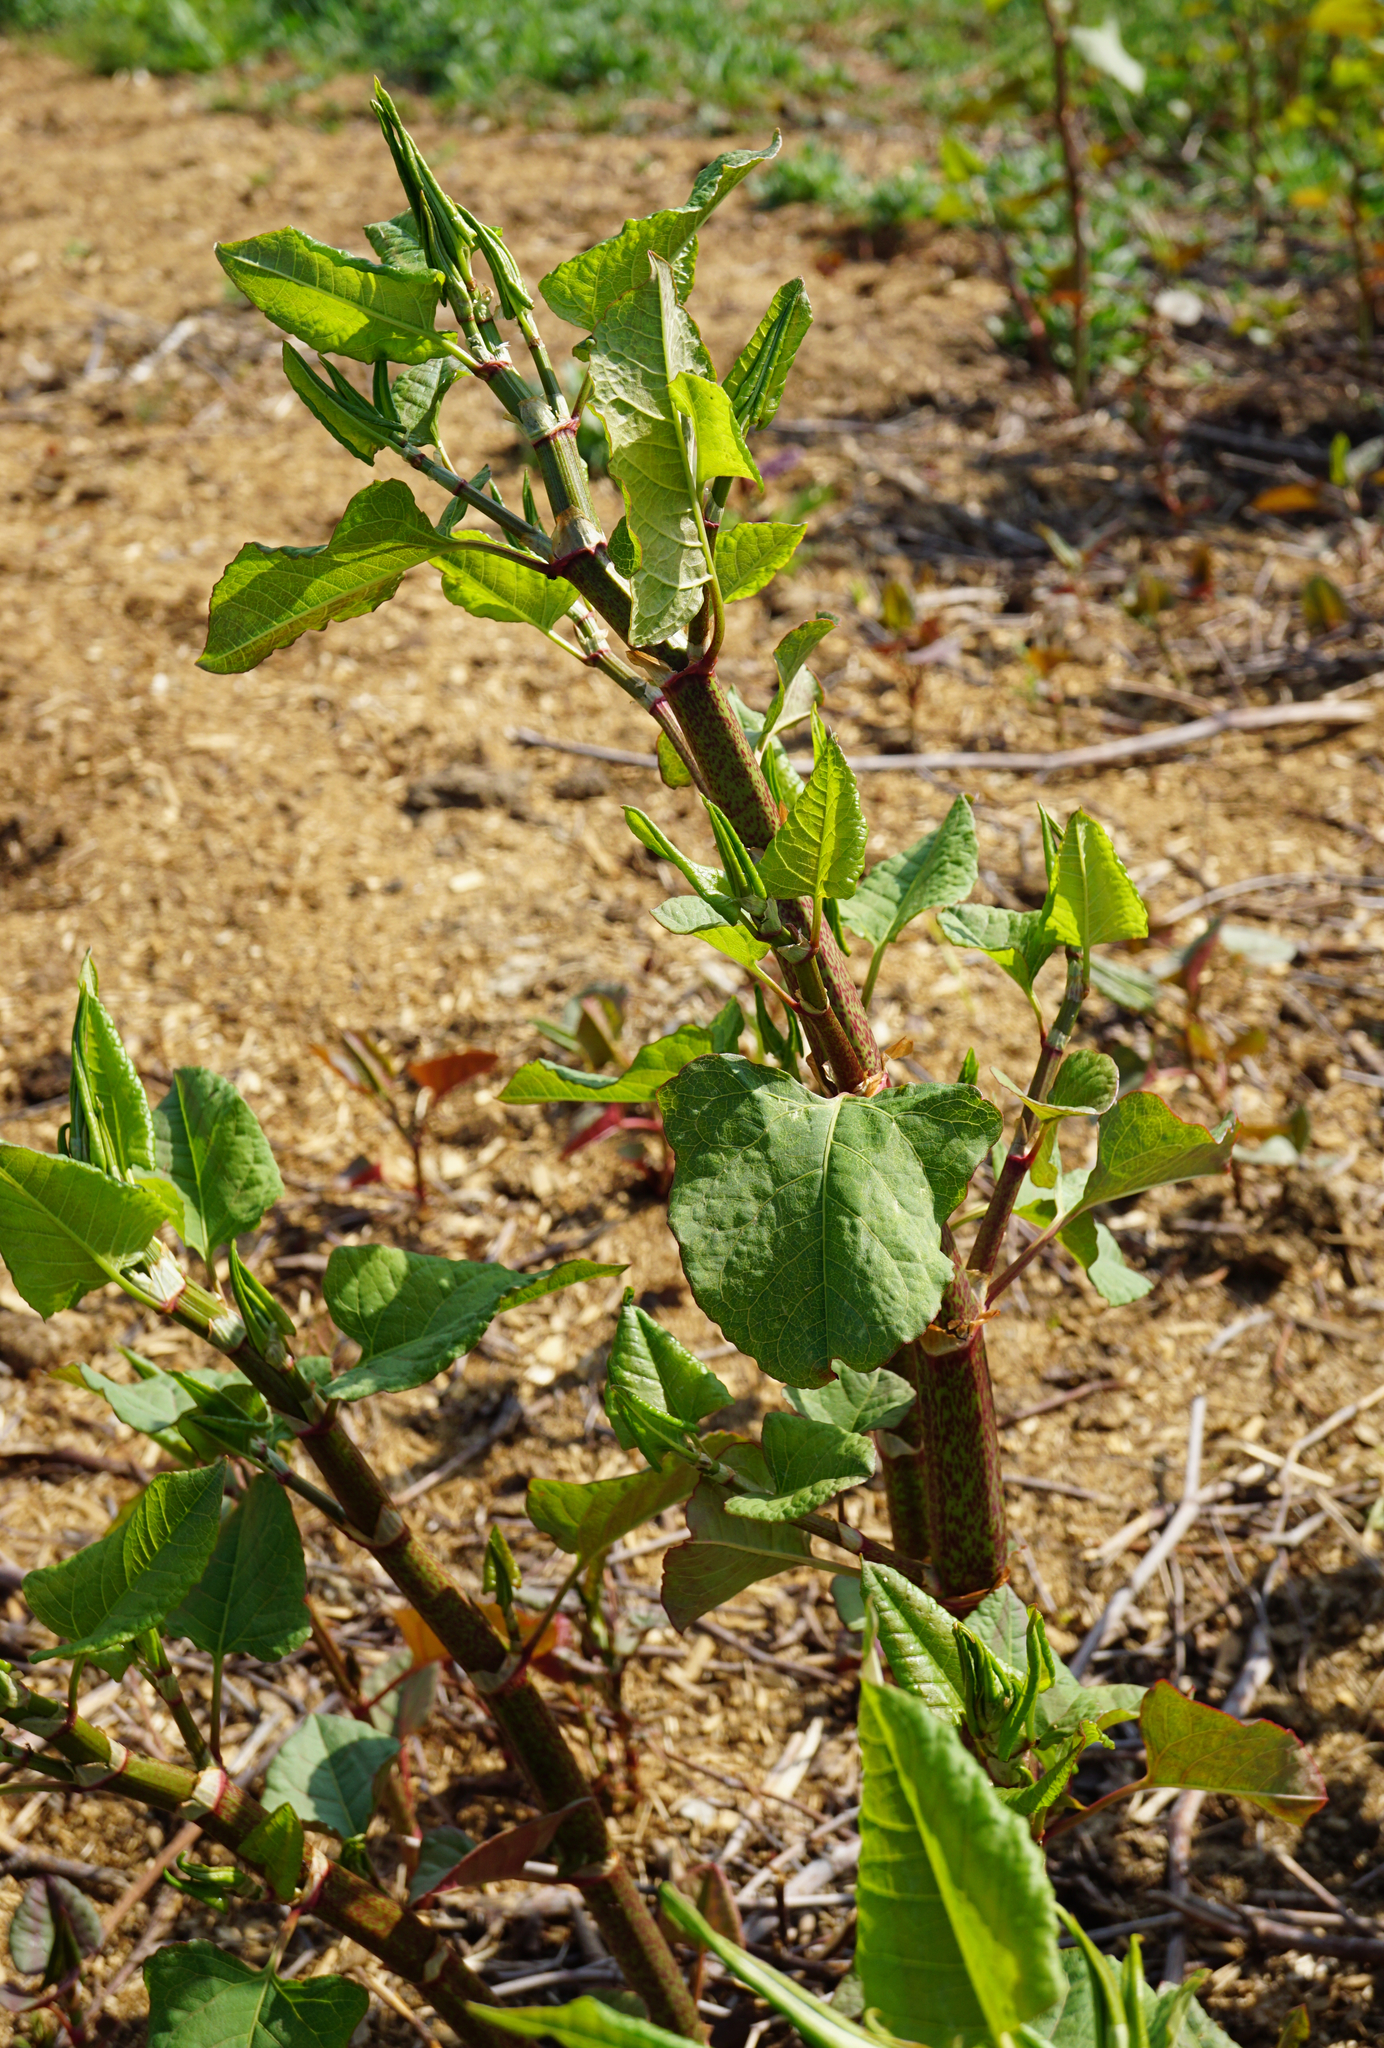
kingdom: Plantae
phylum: Tracheophyta
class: Magnoliopsida
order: Caryophyllales
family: Polygonaceae
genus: Reynoutria
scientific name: Reynoutria bohemica
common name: Bohemian knotweed
